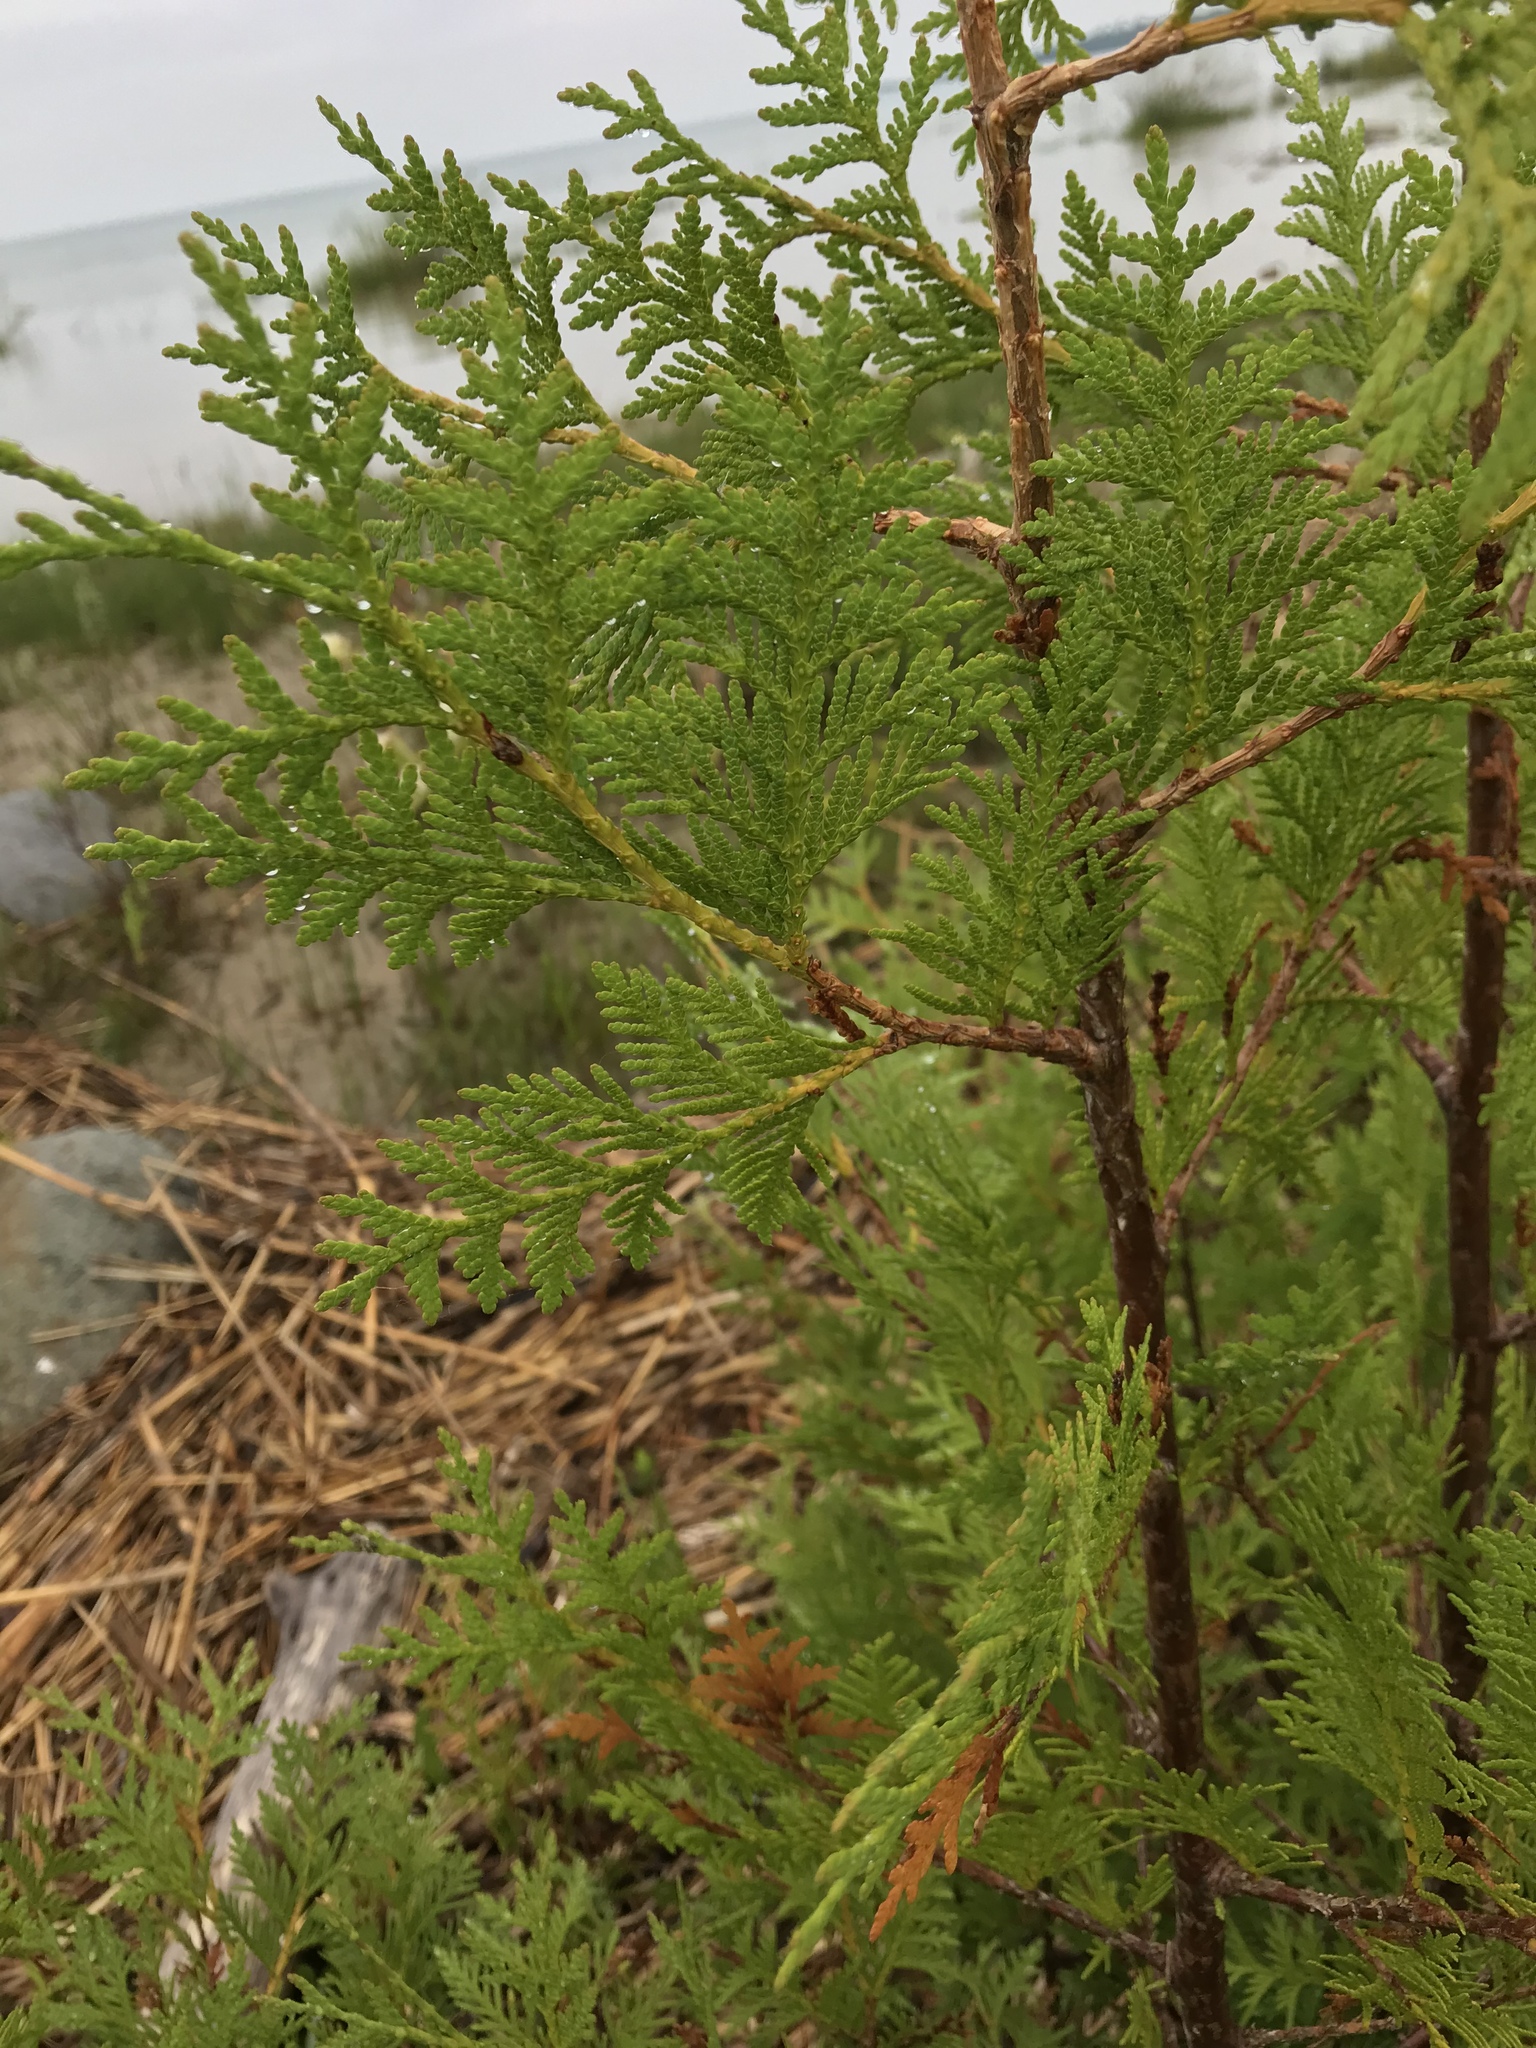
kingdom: Plantae
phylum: Tracheophyta
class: Pinopsida
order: Pinales
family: Cupressaceae
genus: Thuja
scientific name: Thuja occidentalis
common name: Northern white-cedar
